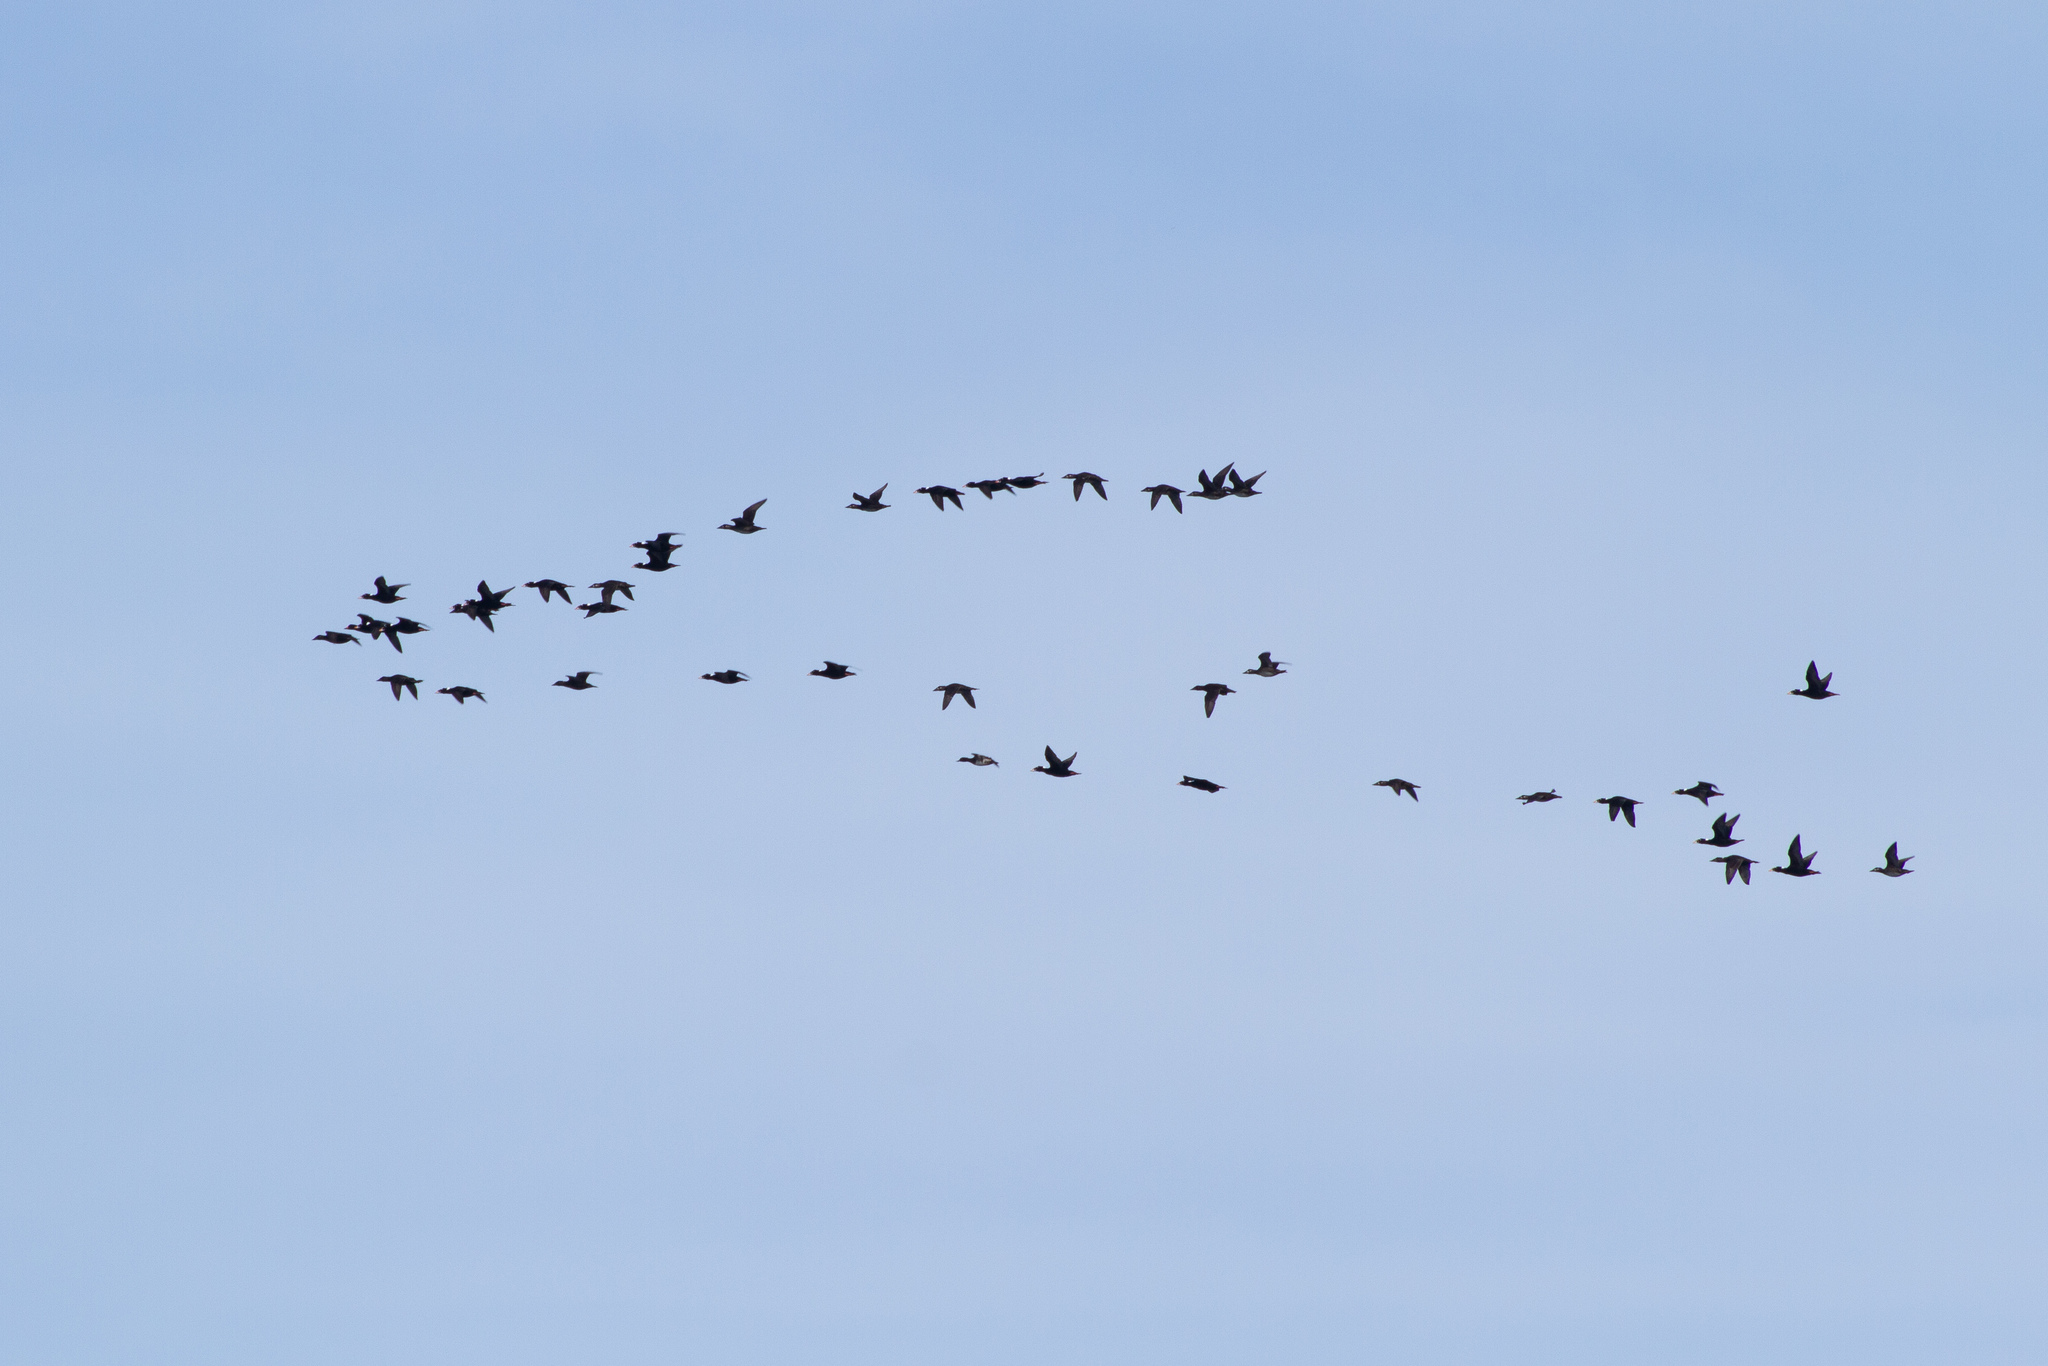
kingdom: Animalia
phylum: Chordata
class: Aves
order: Anseriformes
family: Anatidae
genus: Melanitta
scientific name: Melanitta perspicillata
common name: Surf scoter
